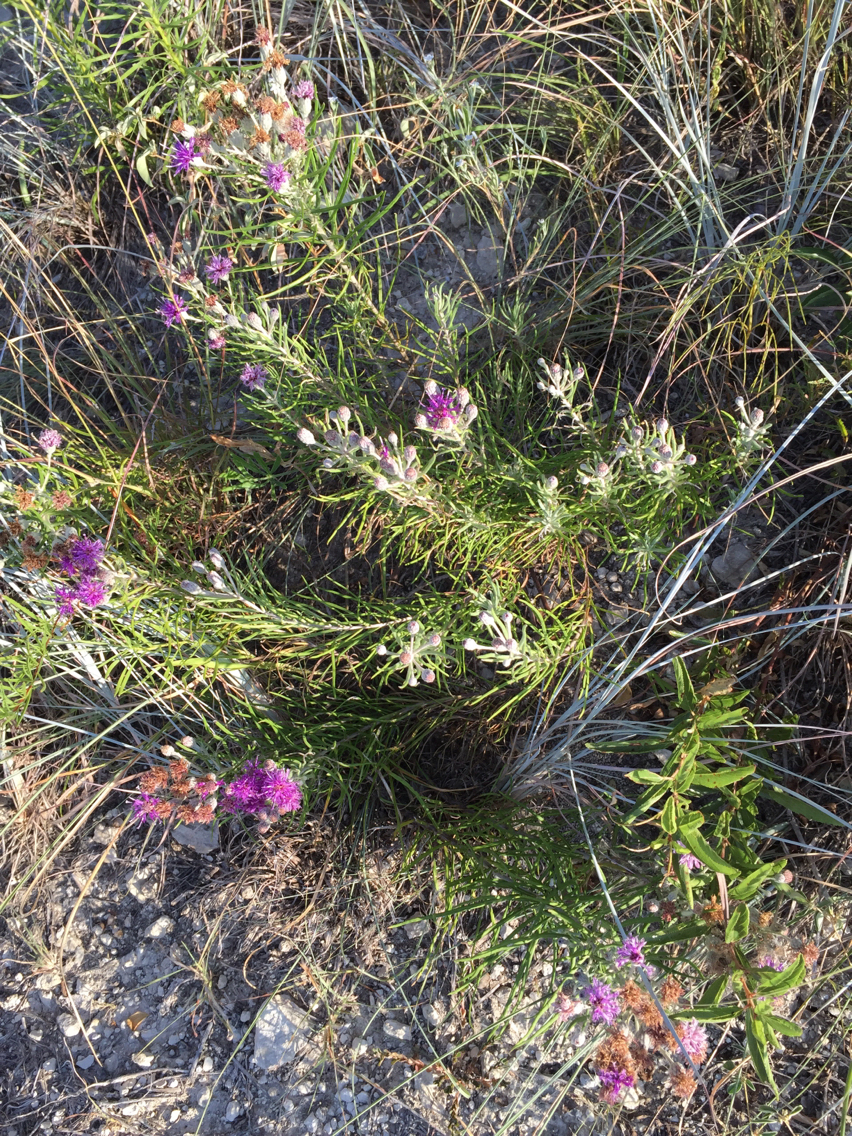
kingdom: Plantae
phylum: Tracheophyta
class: Magnoliopsida
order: Asterales
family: Asteraceae
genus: Vernonia
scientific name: Vernonia lindheimeri
